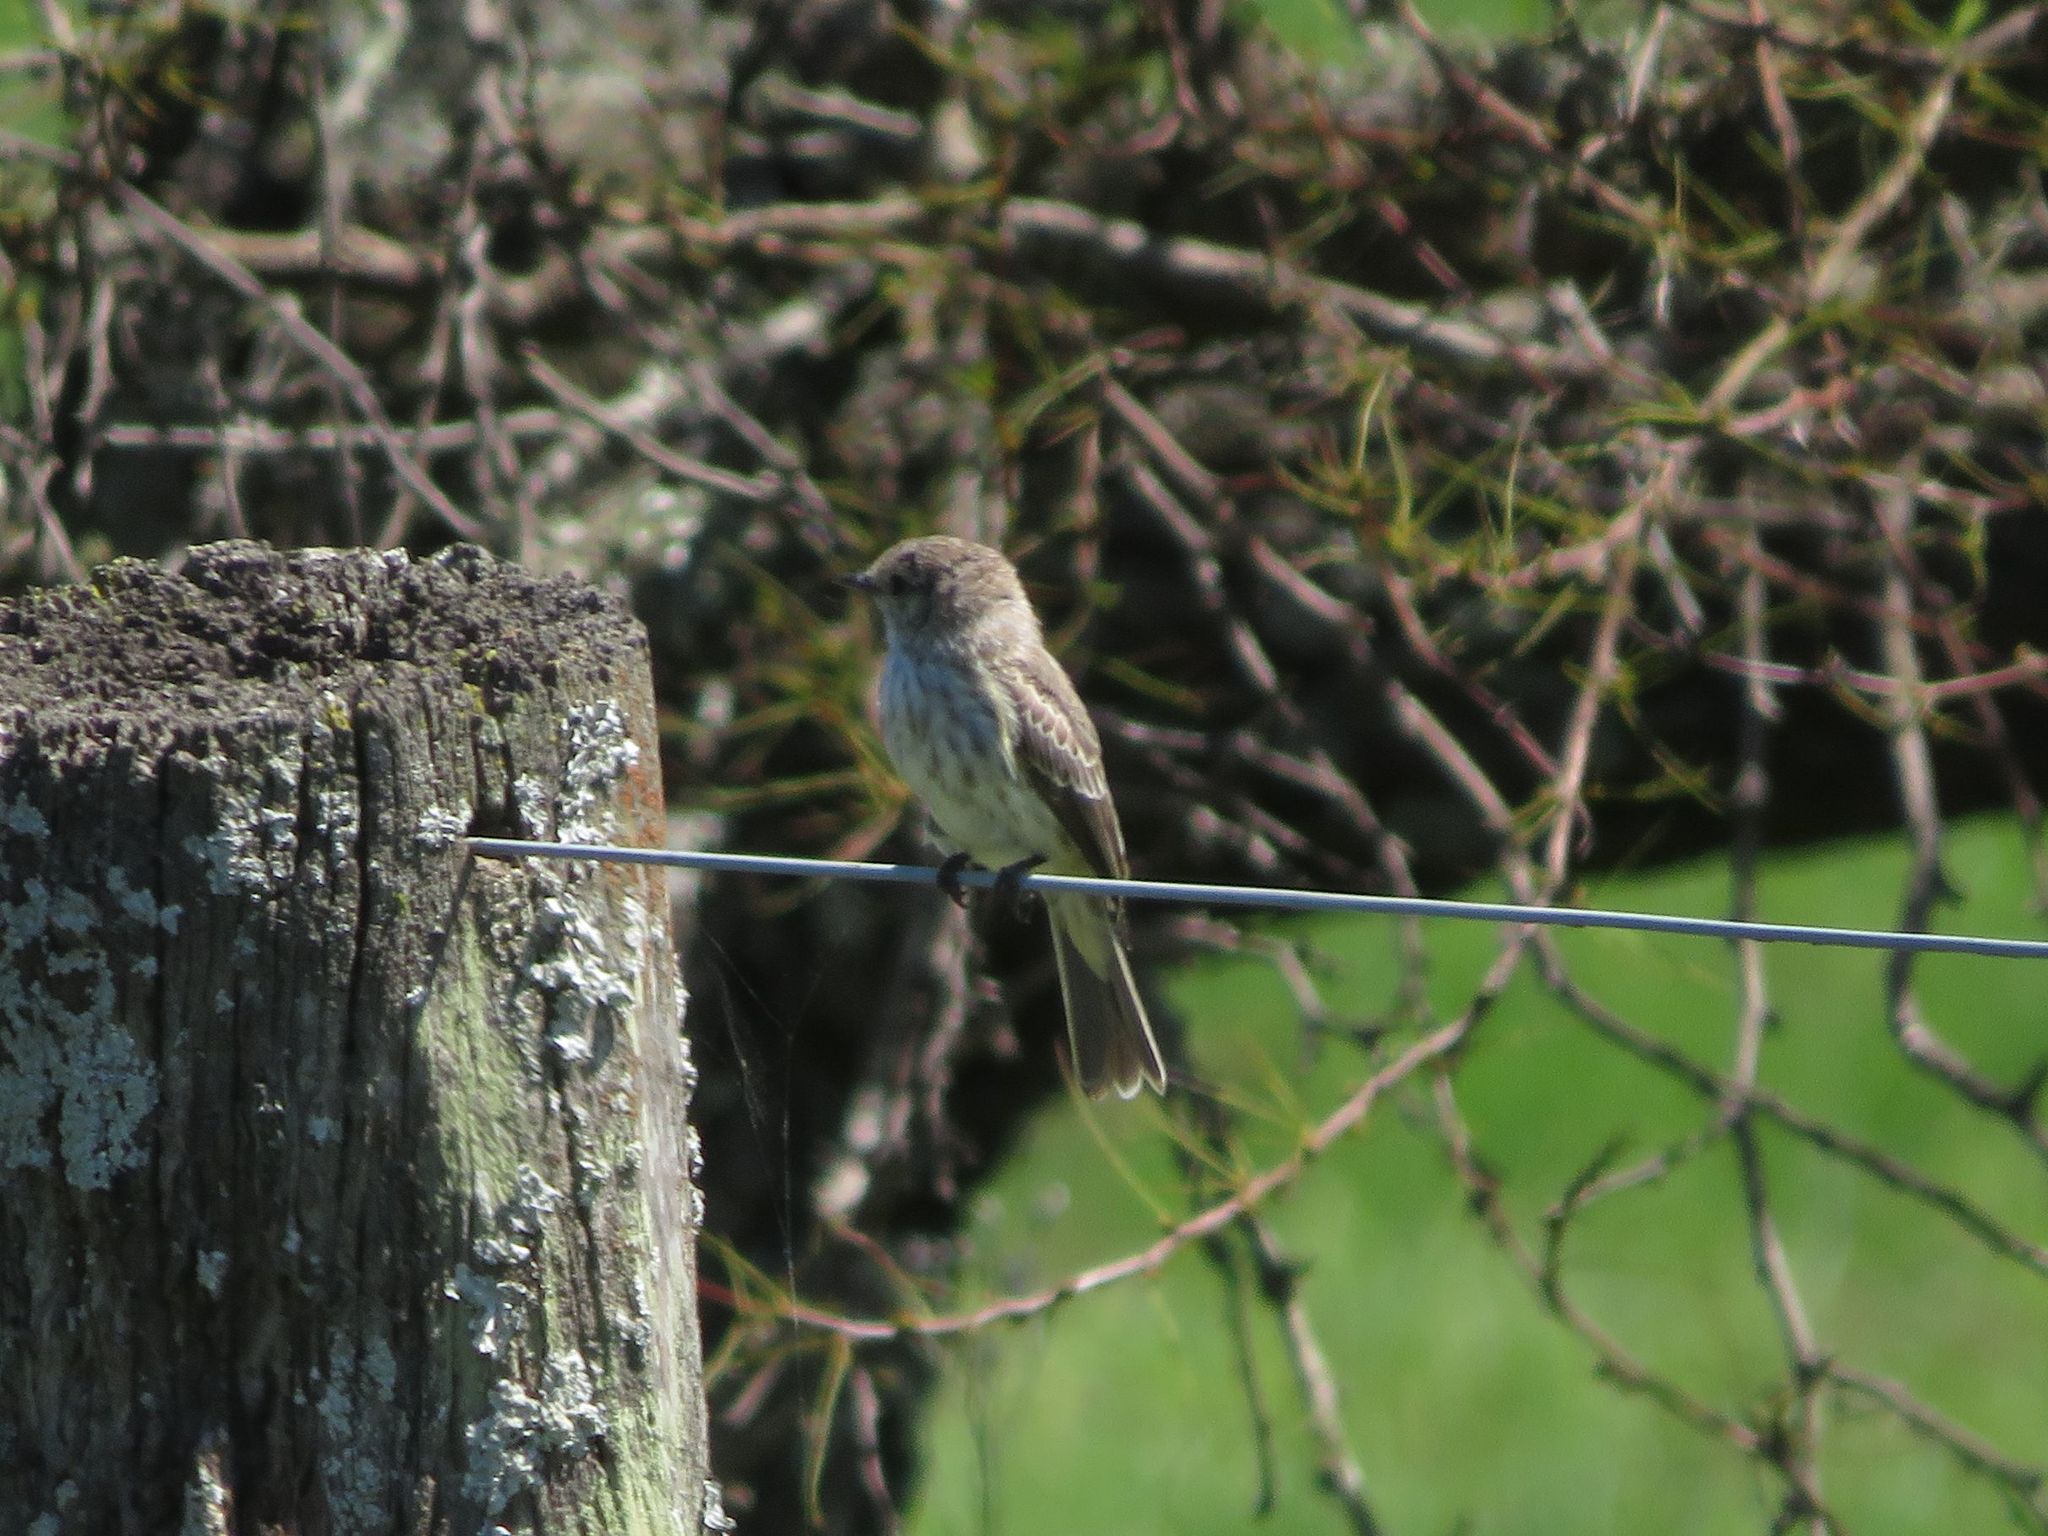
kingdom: Animalia
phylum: Chordata
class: Aves
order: Passeriformes
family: Tyrannidae
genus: Pyrocephalus
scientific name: Pyrocephalus rubinus
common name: Vermilion flycatcher
